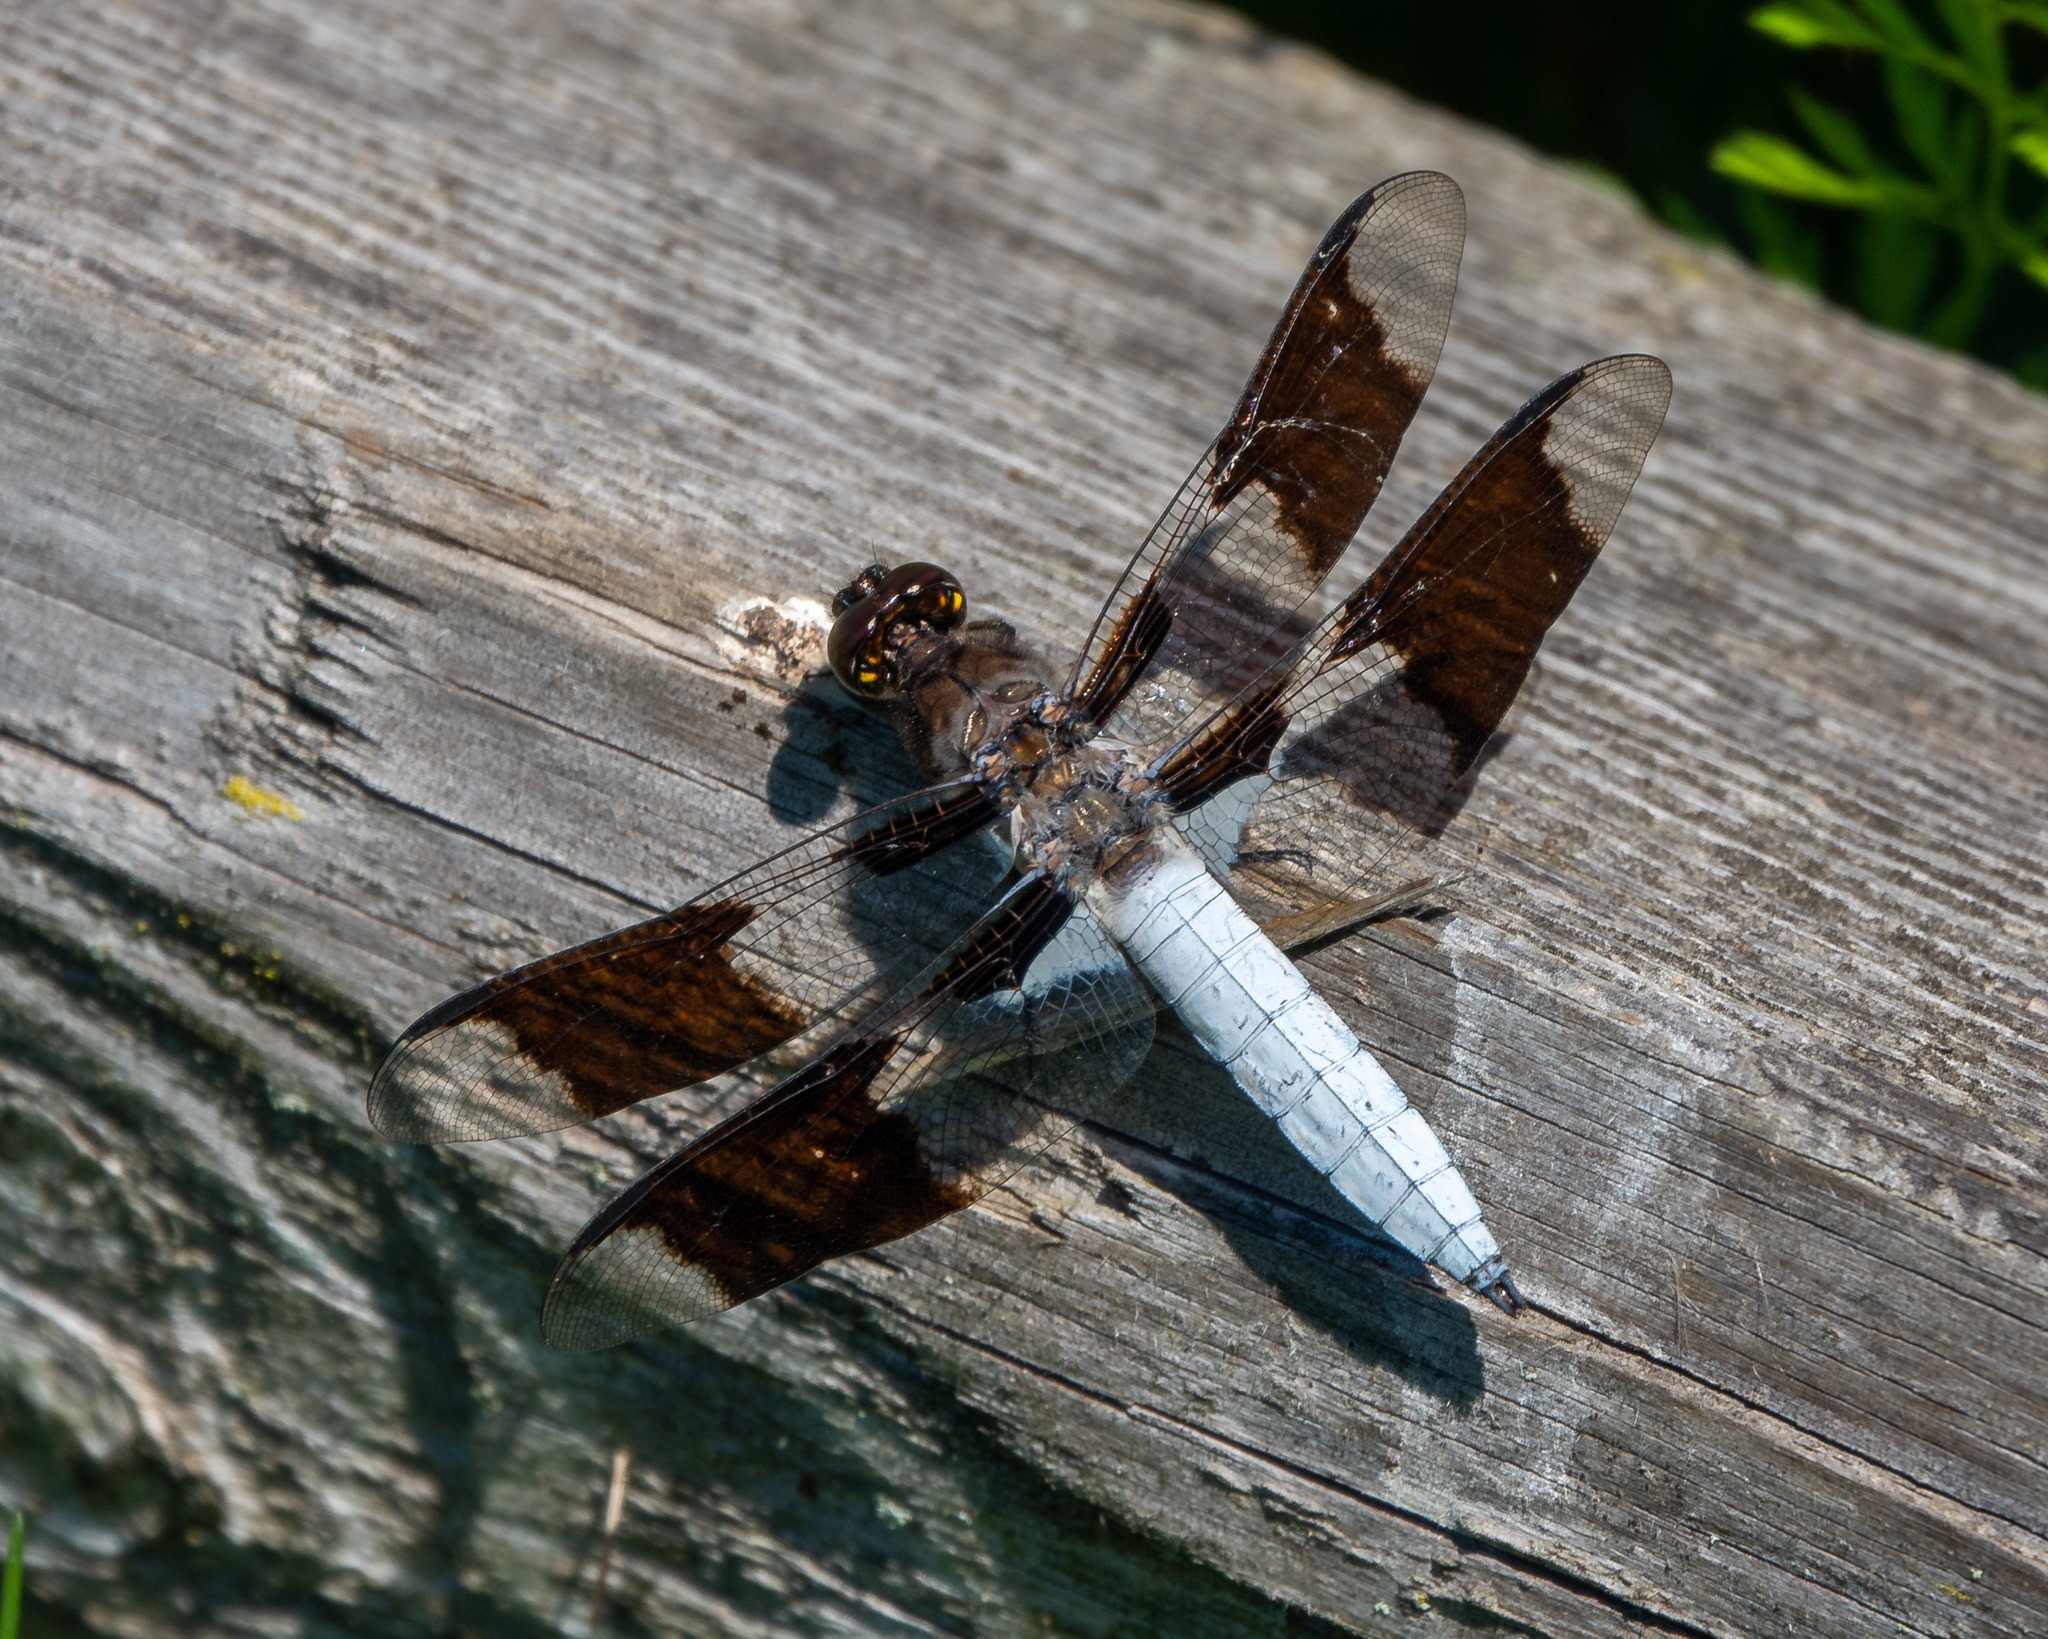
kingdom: Animalia
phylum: Arthropoda
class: Insecta
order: Odonata
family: Libellulidae
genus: Plathemis
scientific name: Plathemis lydia
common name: Common whitetail
